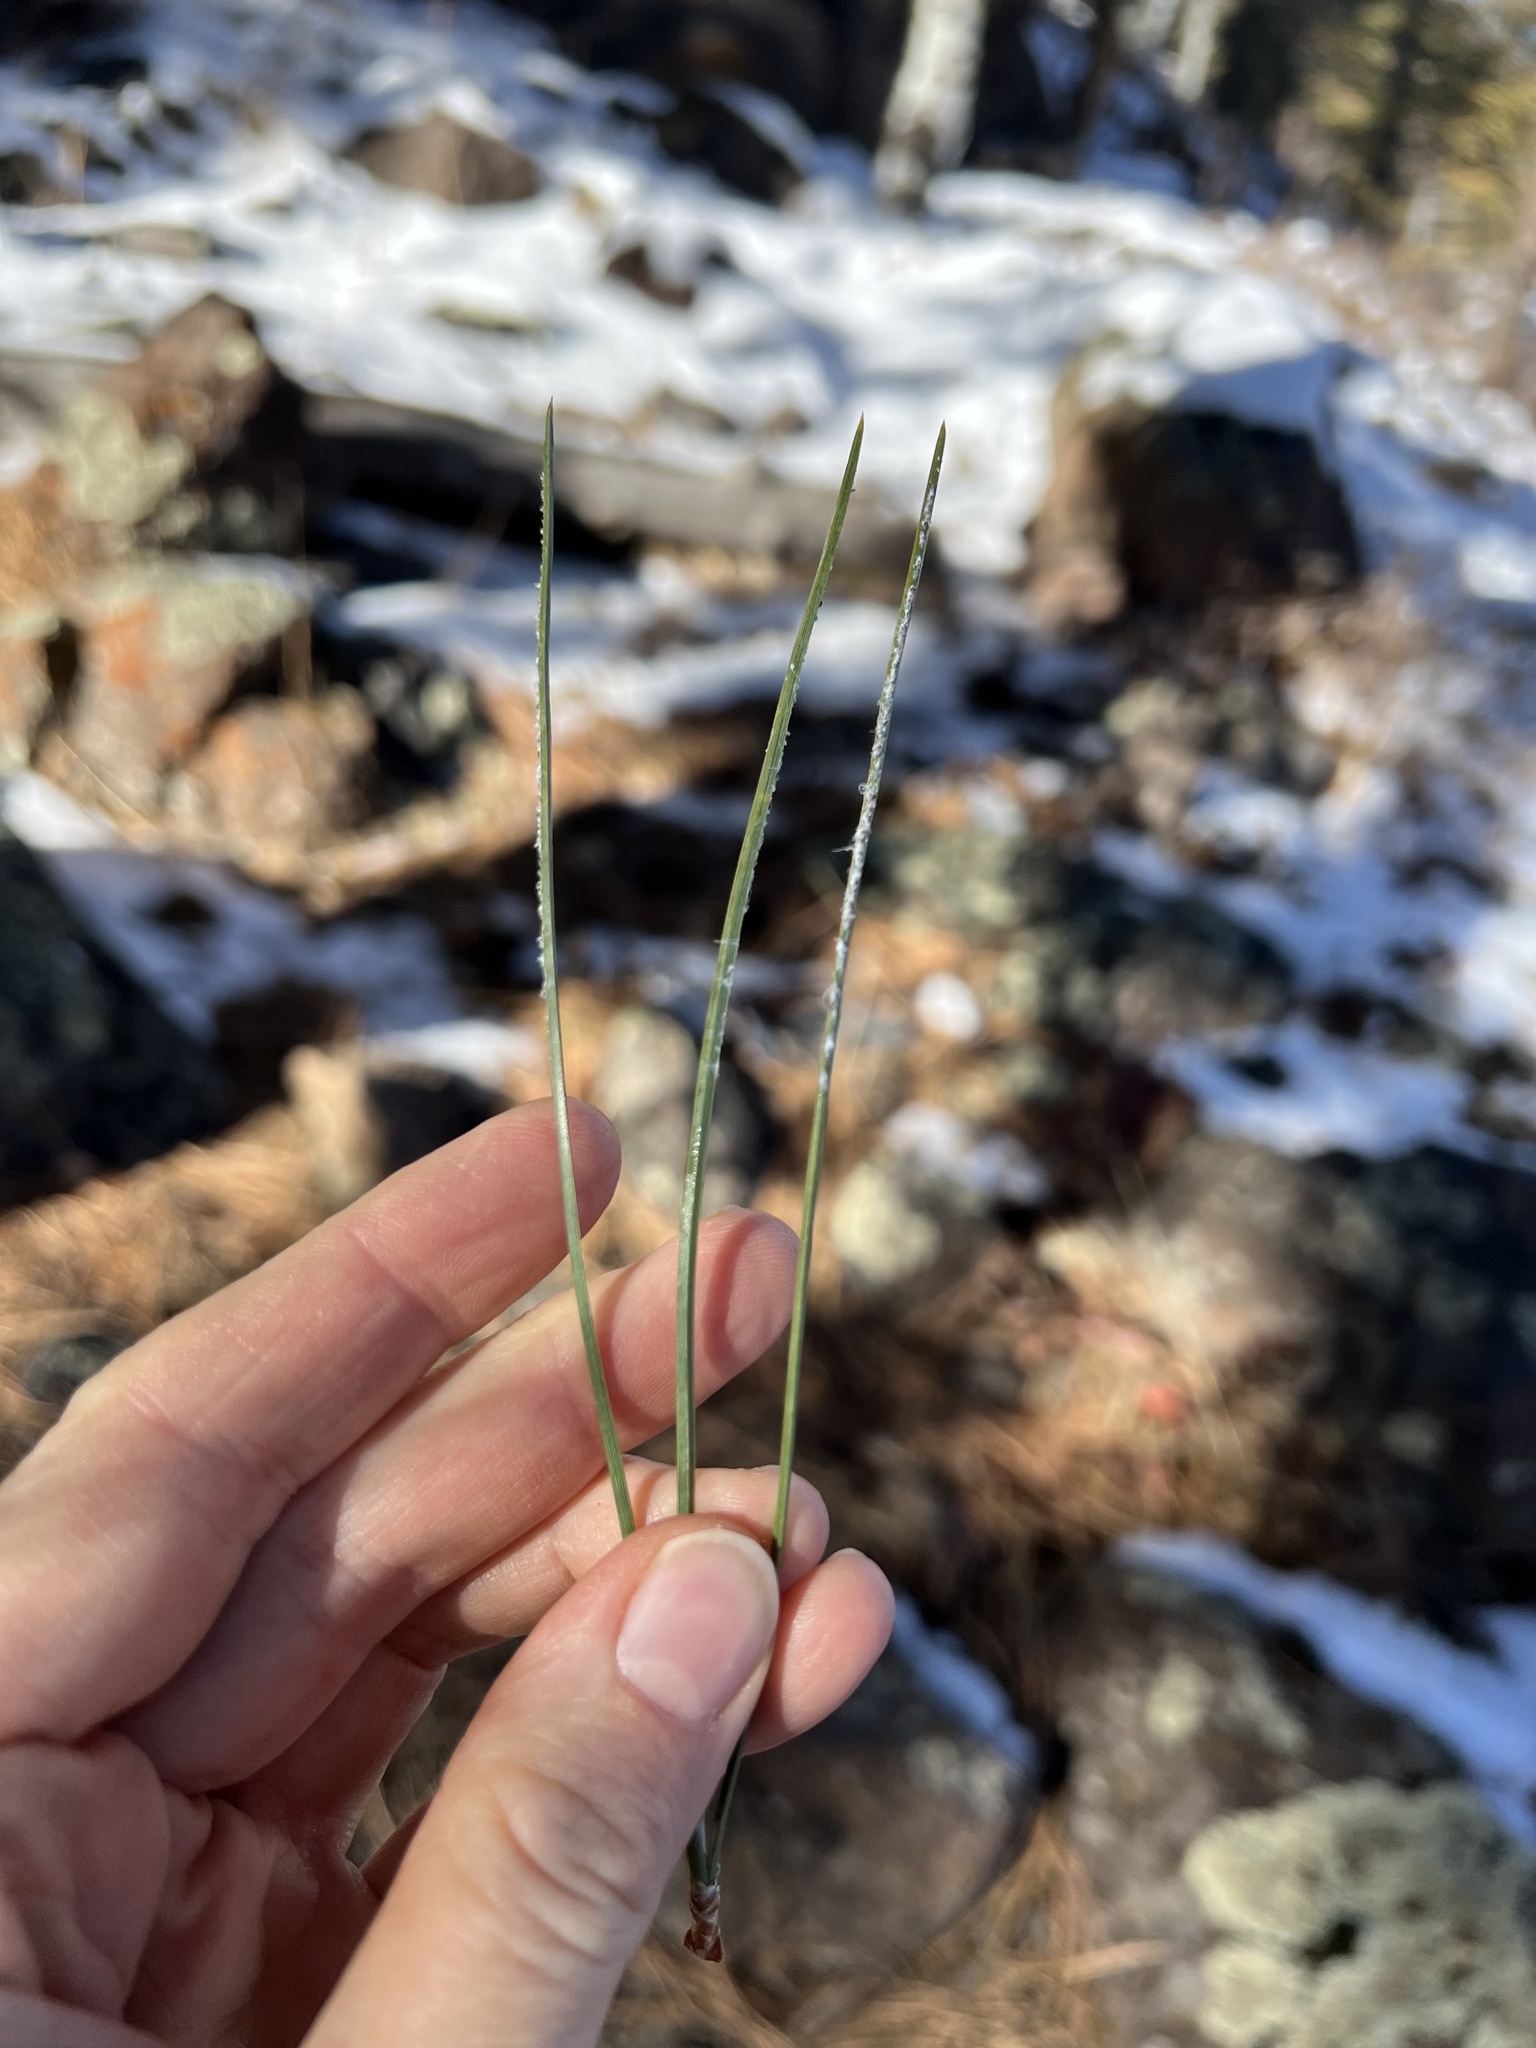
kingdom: Plantae
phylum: Tracheophyta
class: Pinopsida
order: Pinales
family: Pinaceae
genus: Pinus
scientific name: Pinus ponderosa
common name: Western yellow-pine
